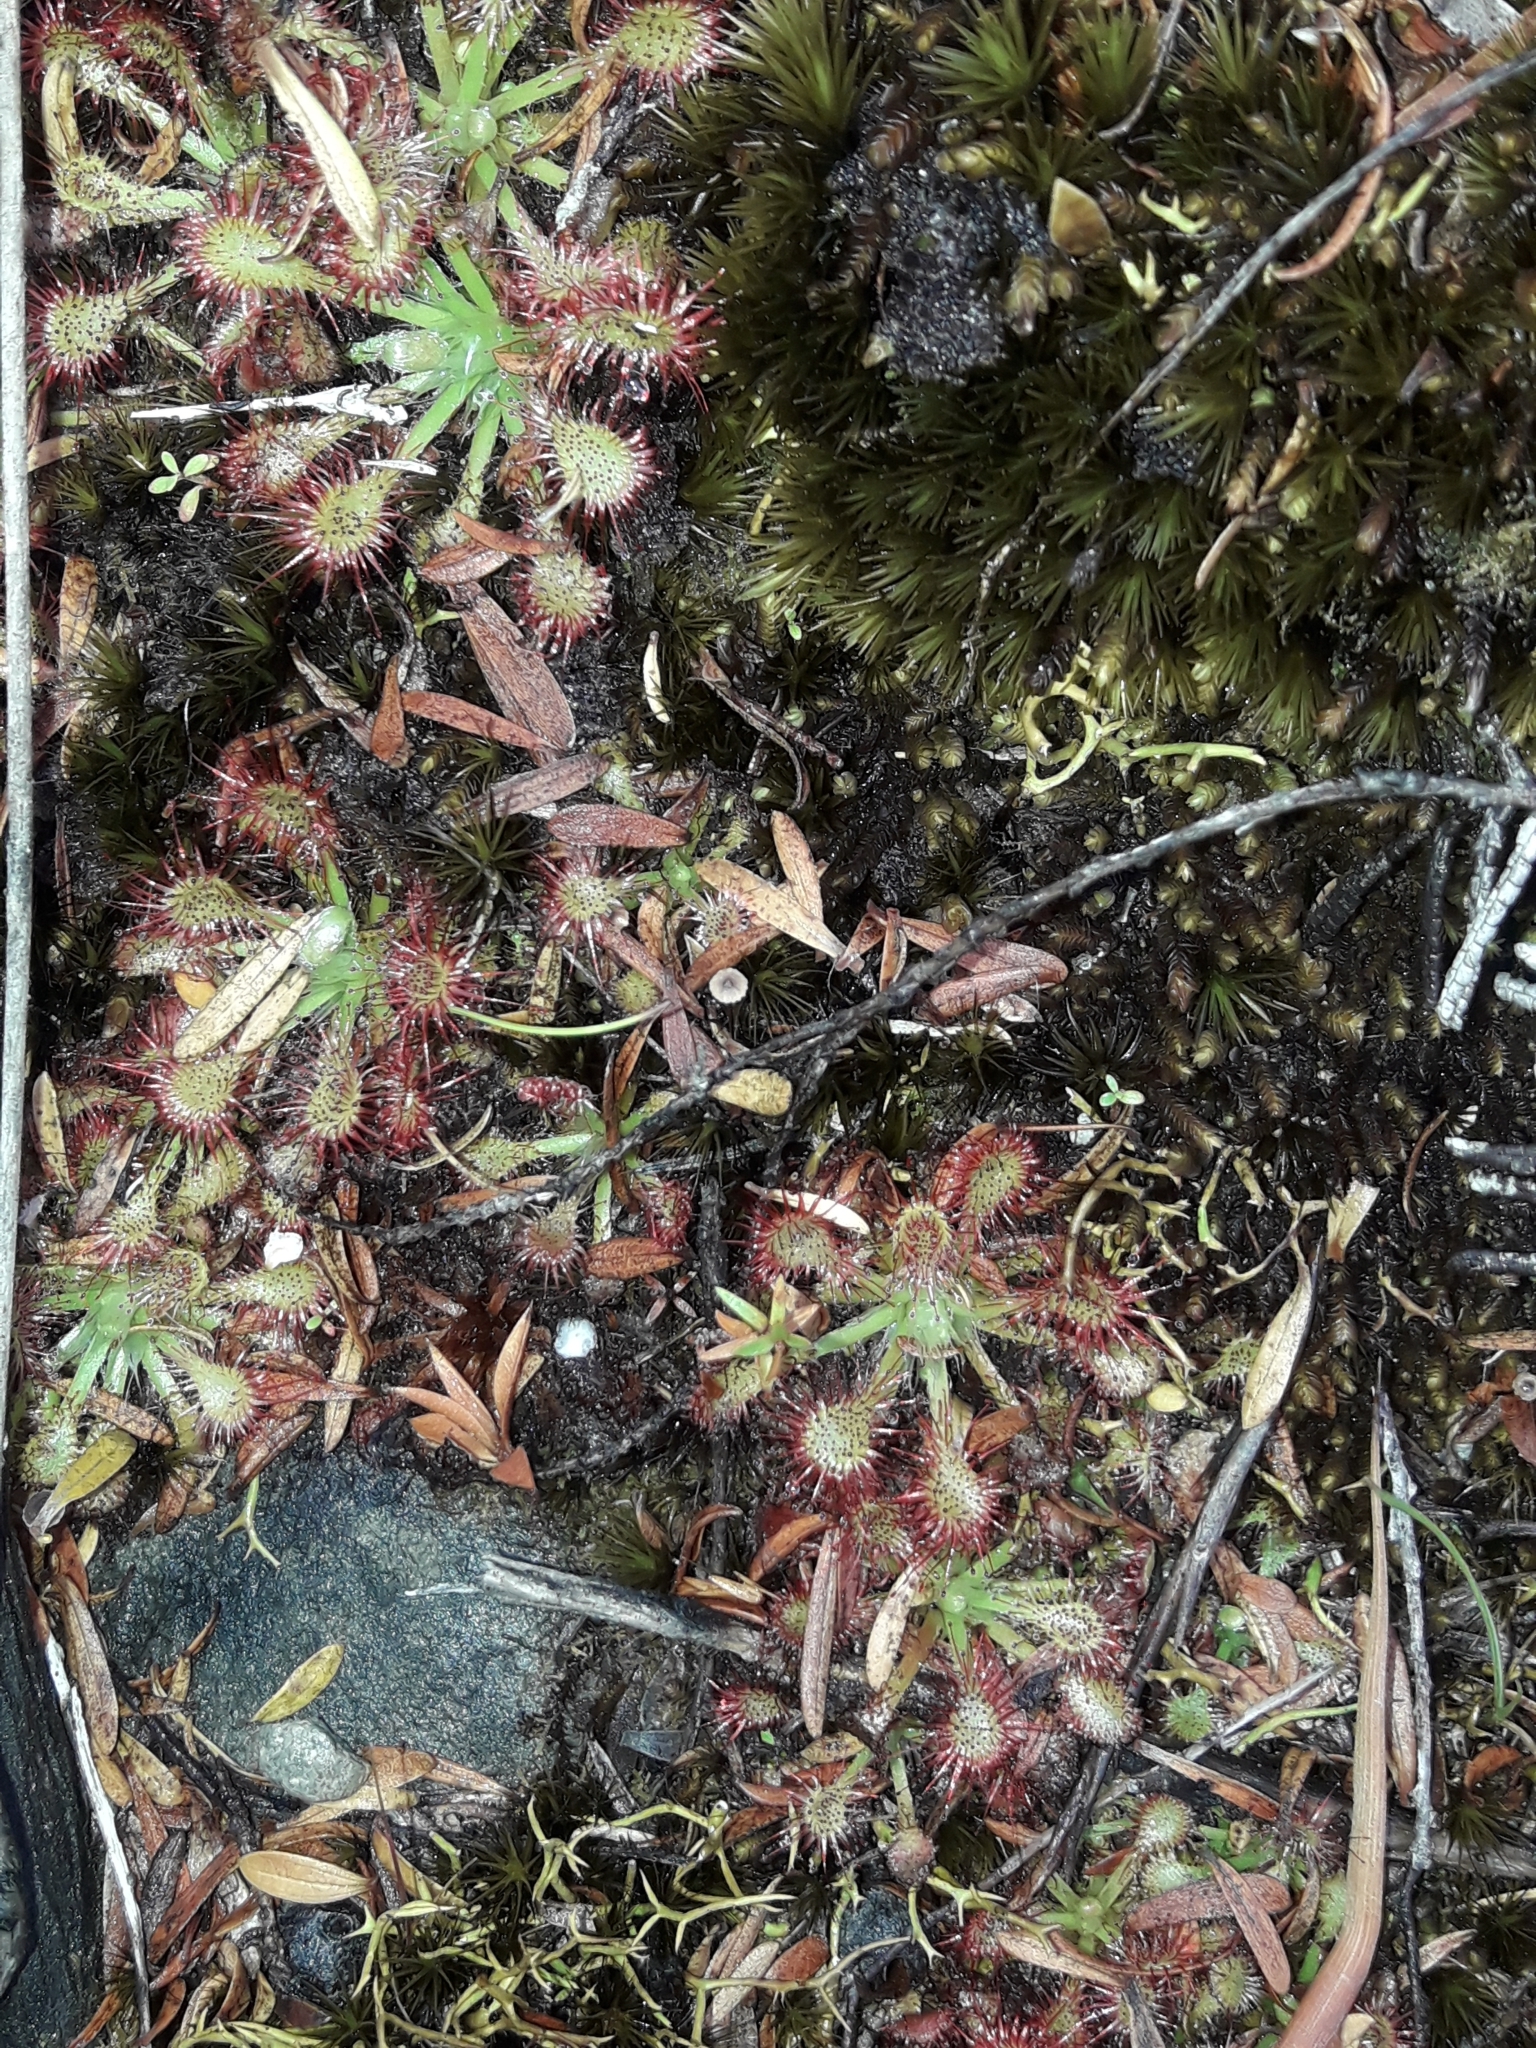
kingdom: Plantae
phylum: Tracheophyta
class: Magnoliopsida
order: Caryophyllales
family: Droseraceae
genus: Drosera
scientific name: Drosera spatulata
